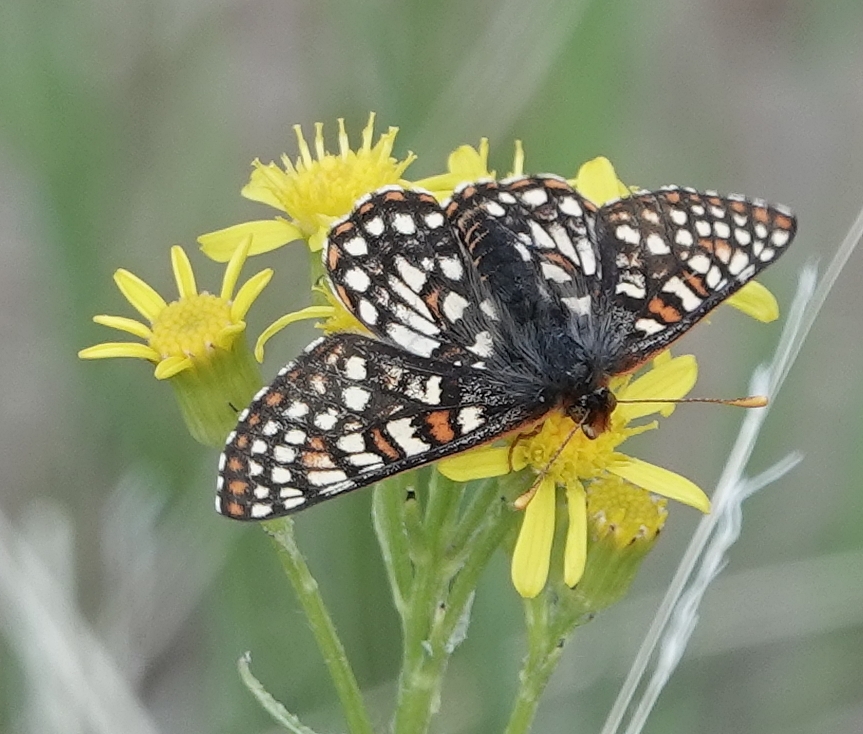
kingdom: Animalia
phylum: Arthropoda
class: Insecta
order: Lepidoptera
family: Nymphalidae
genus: Occidryas
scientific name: Occidryas anicia
